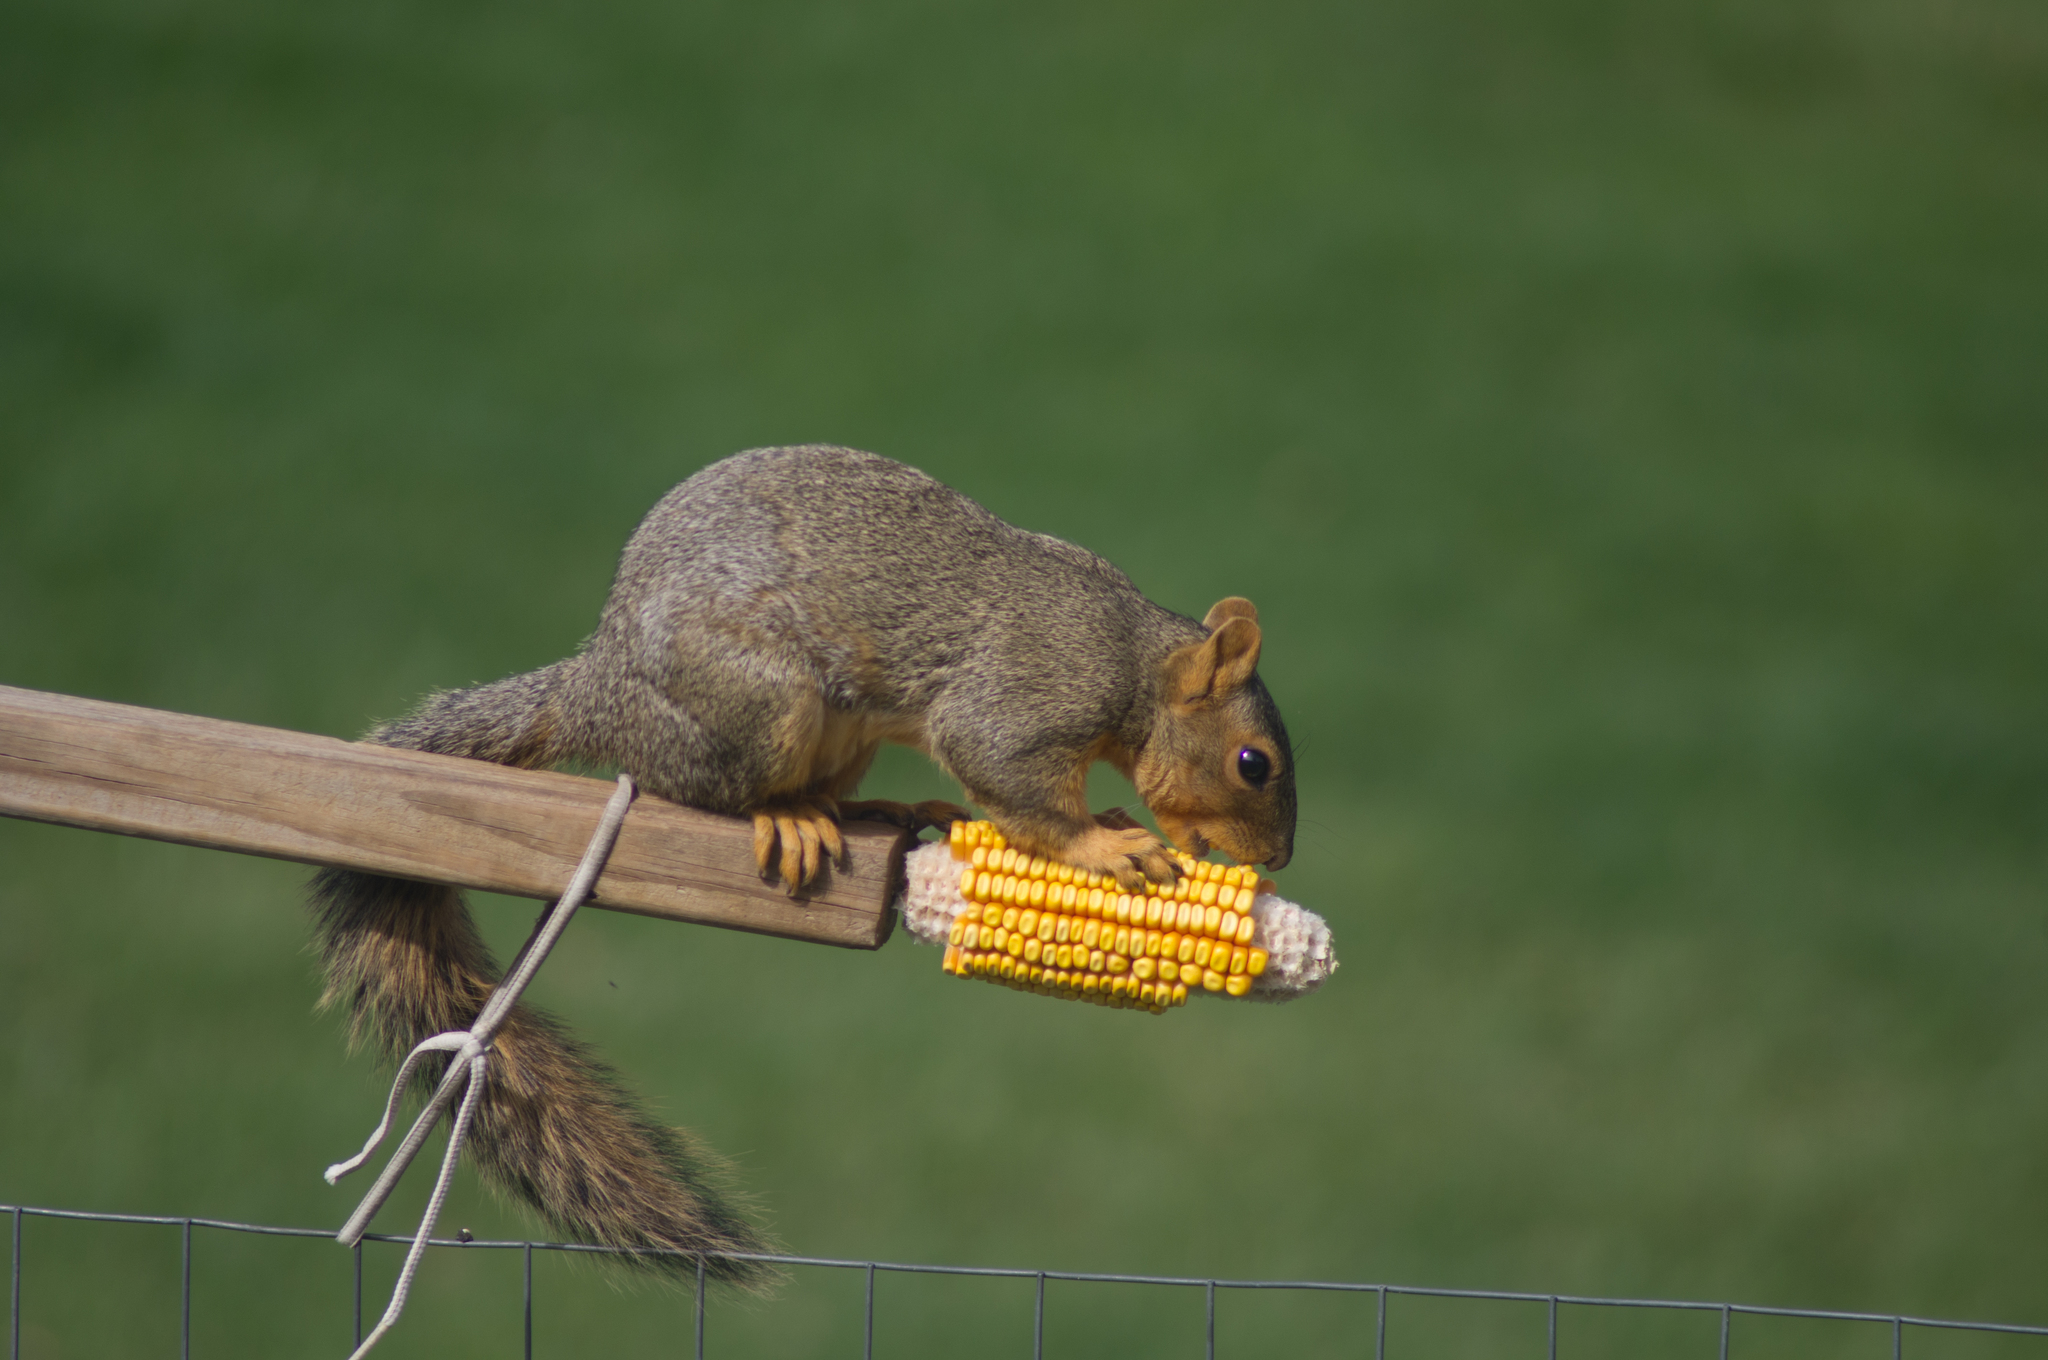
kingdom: Animalia
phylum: Chordata
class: Mammalia
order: Rodentia
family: Sciuridae
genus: Sciurus
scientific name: Sciurus niger
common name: Fox squirrel
